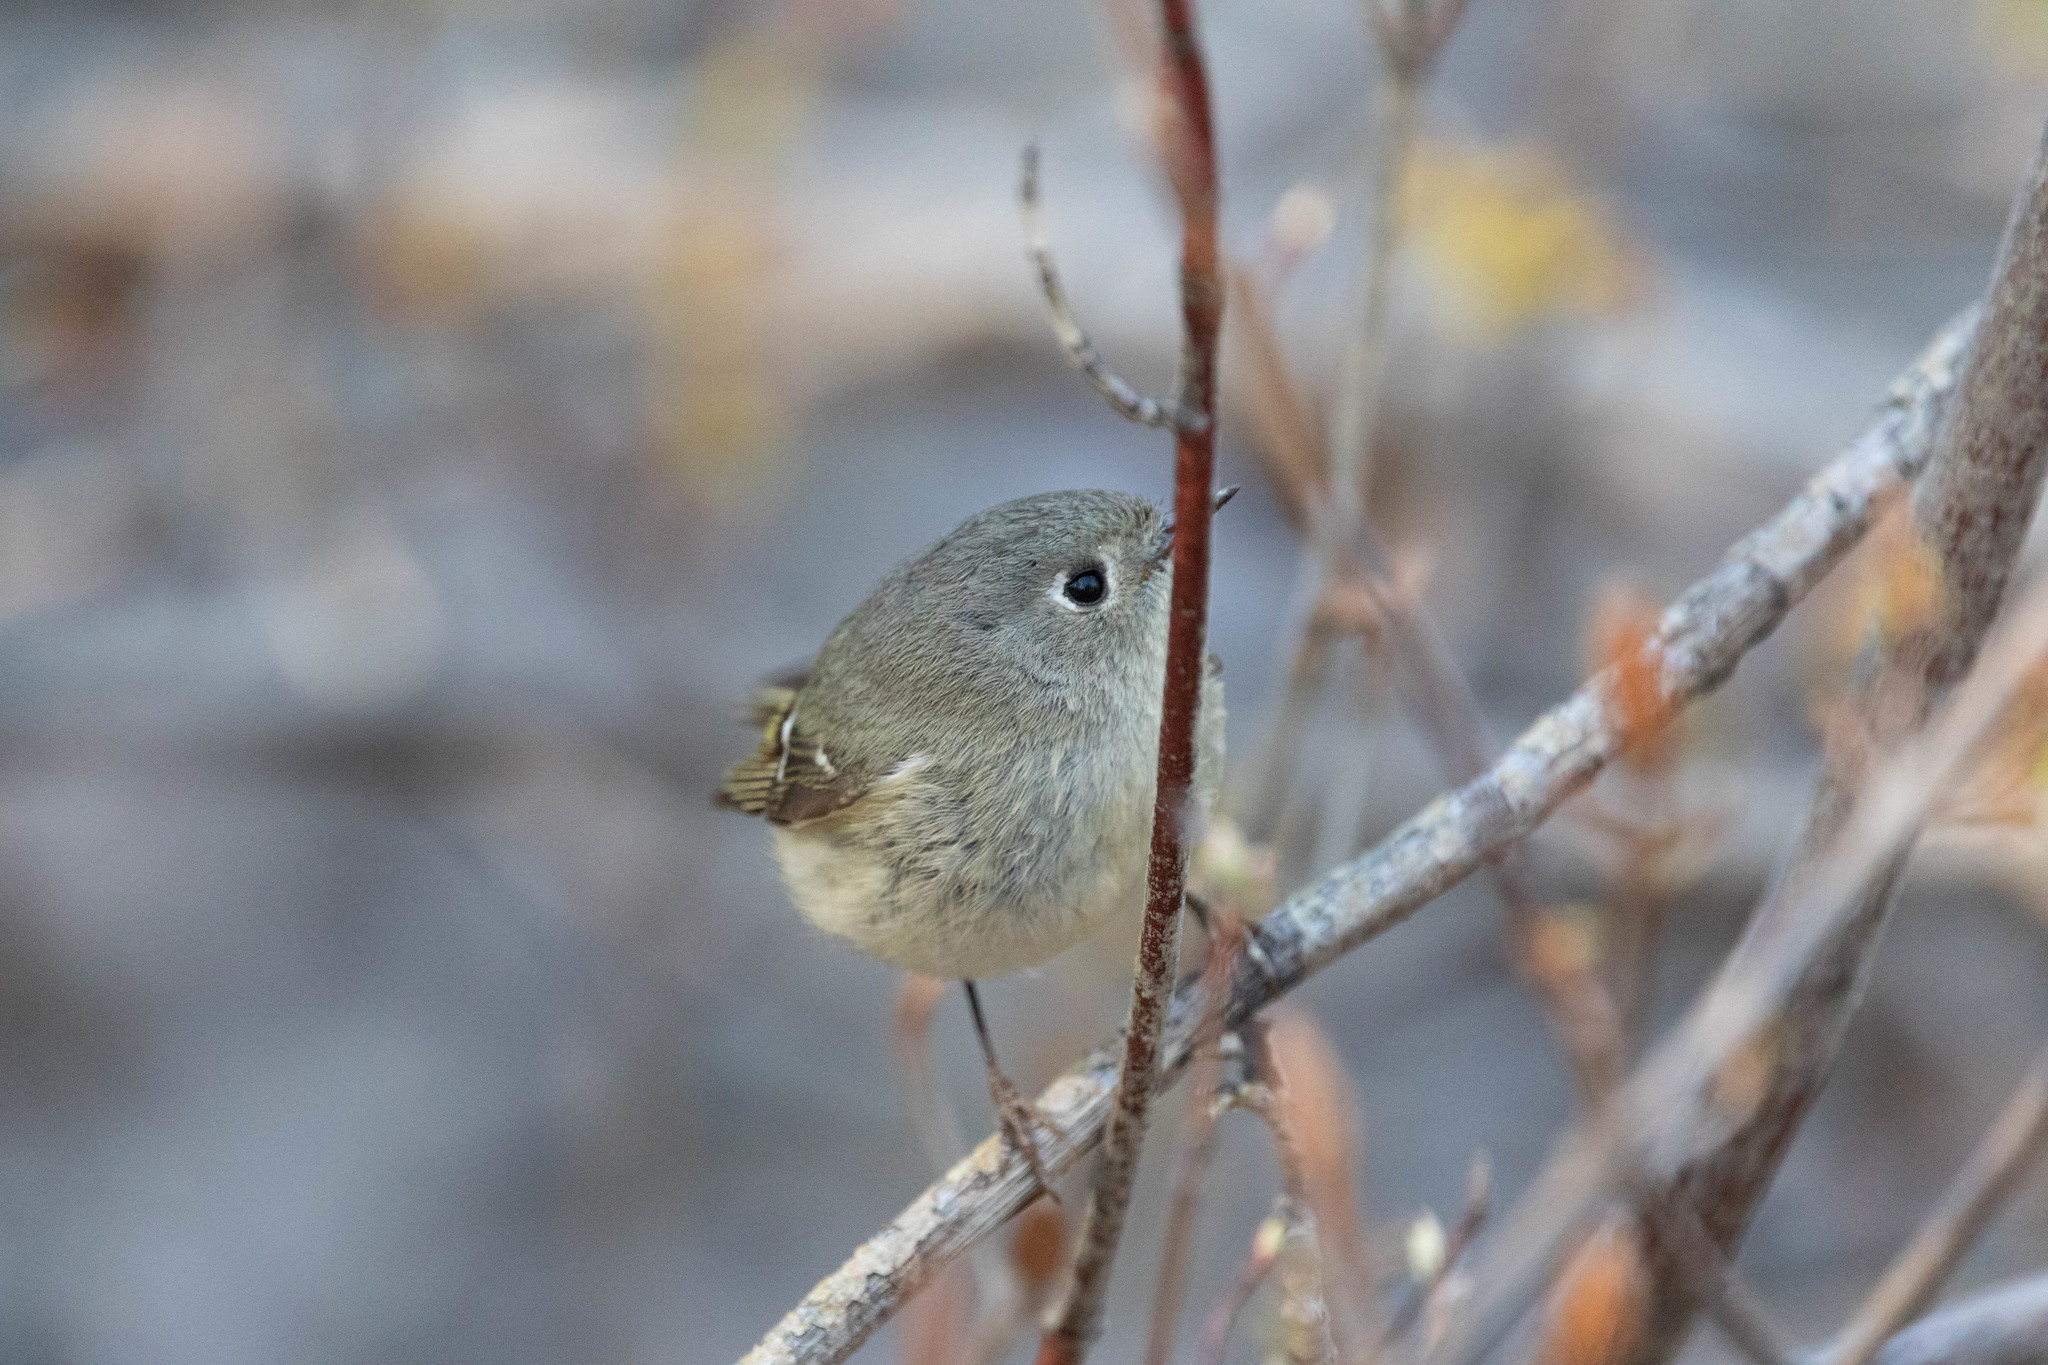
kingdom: Animalia
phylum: Chordata
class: Aves
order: Passeriformes
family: Regulidae
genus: Regulus
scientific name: Regulus calendula
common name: Ruby-crowned kinglet
